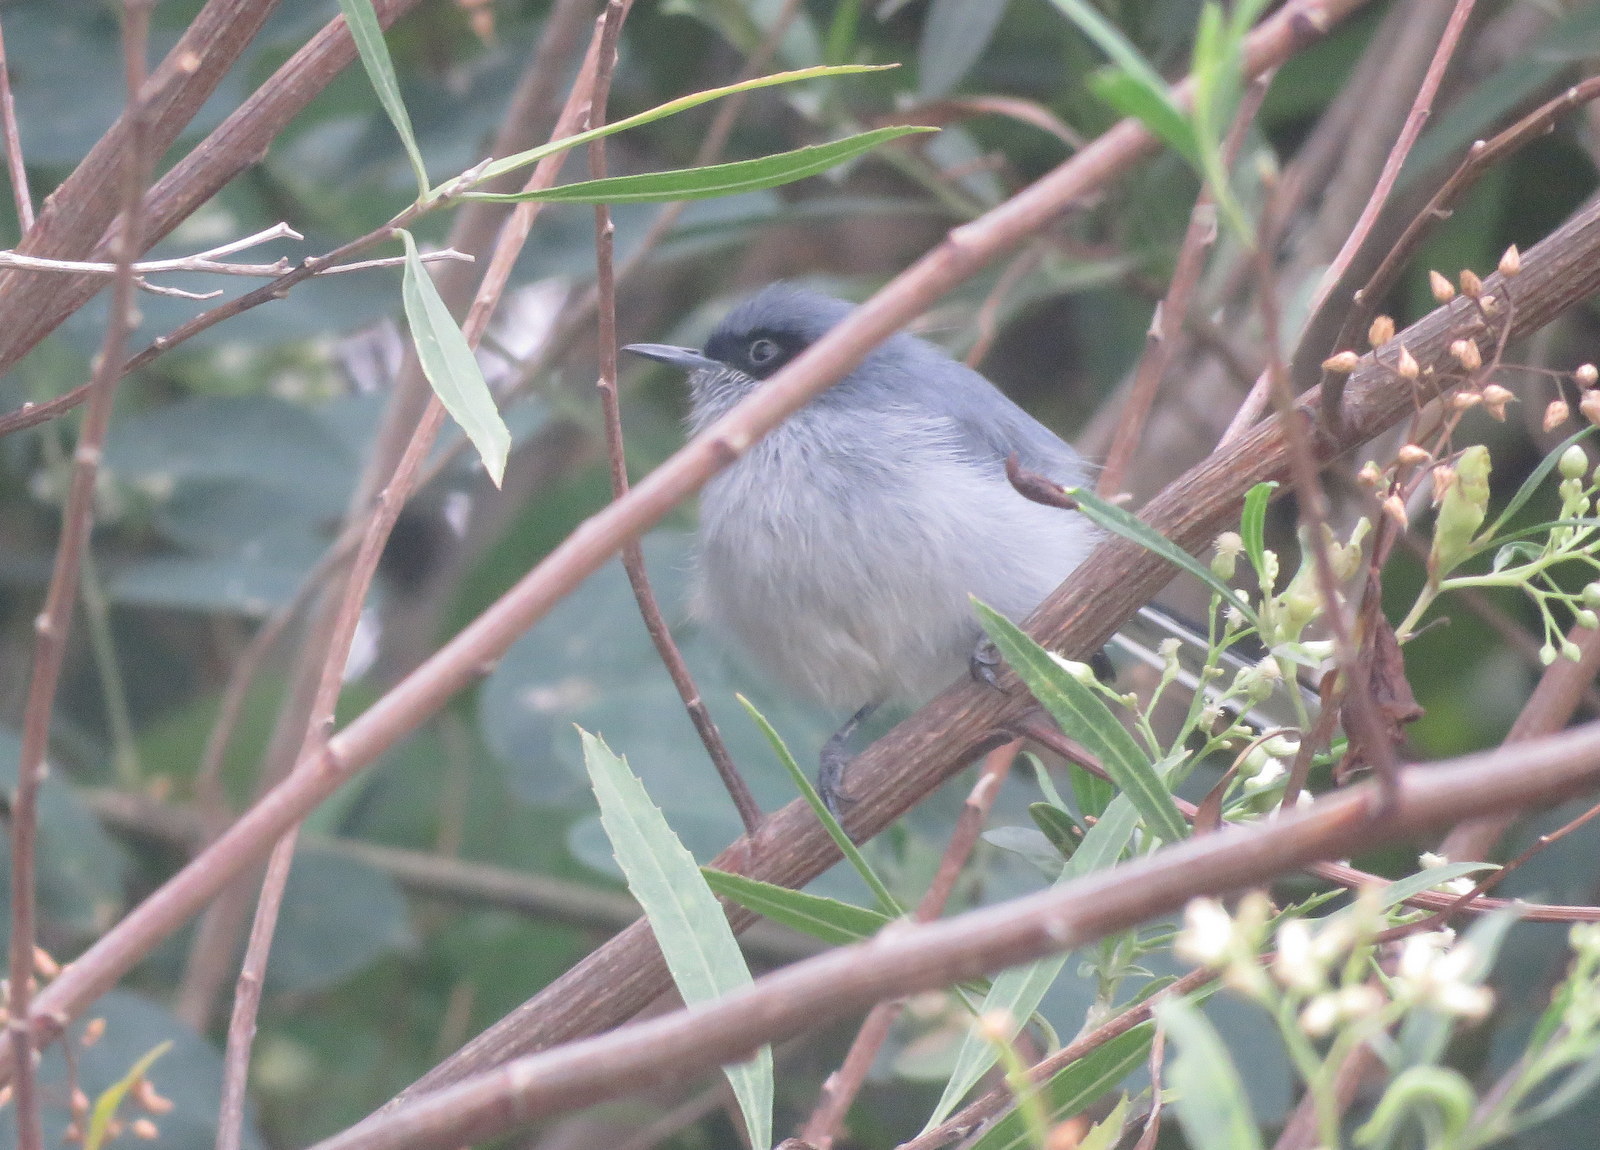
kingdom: Animalia
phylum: Chordata
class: Aves
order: Passeriformes
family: Polioptilidae
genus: Polioptila
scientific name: Polioptila dumicola
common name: Masked gnatcatcher
